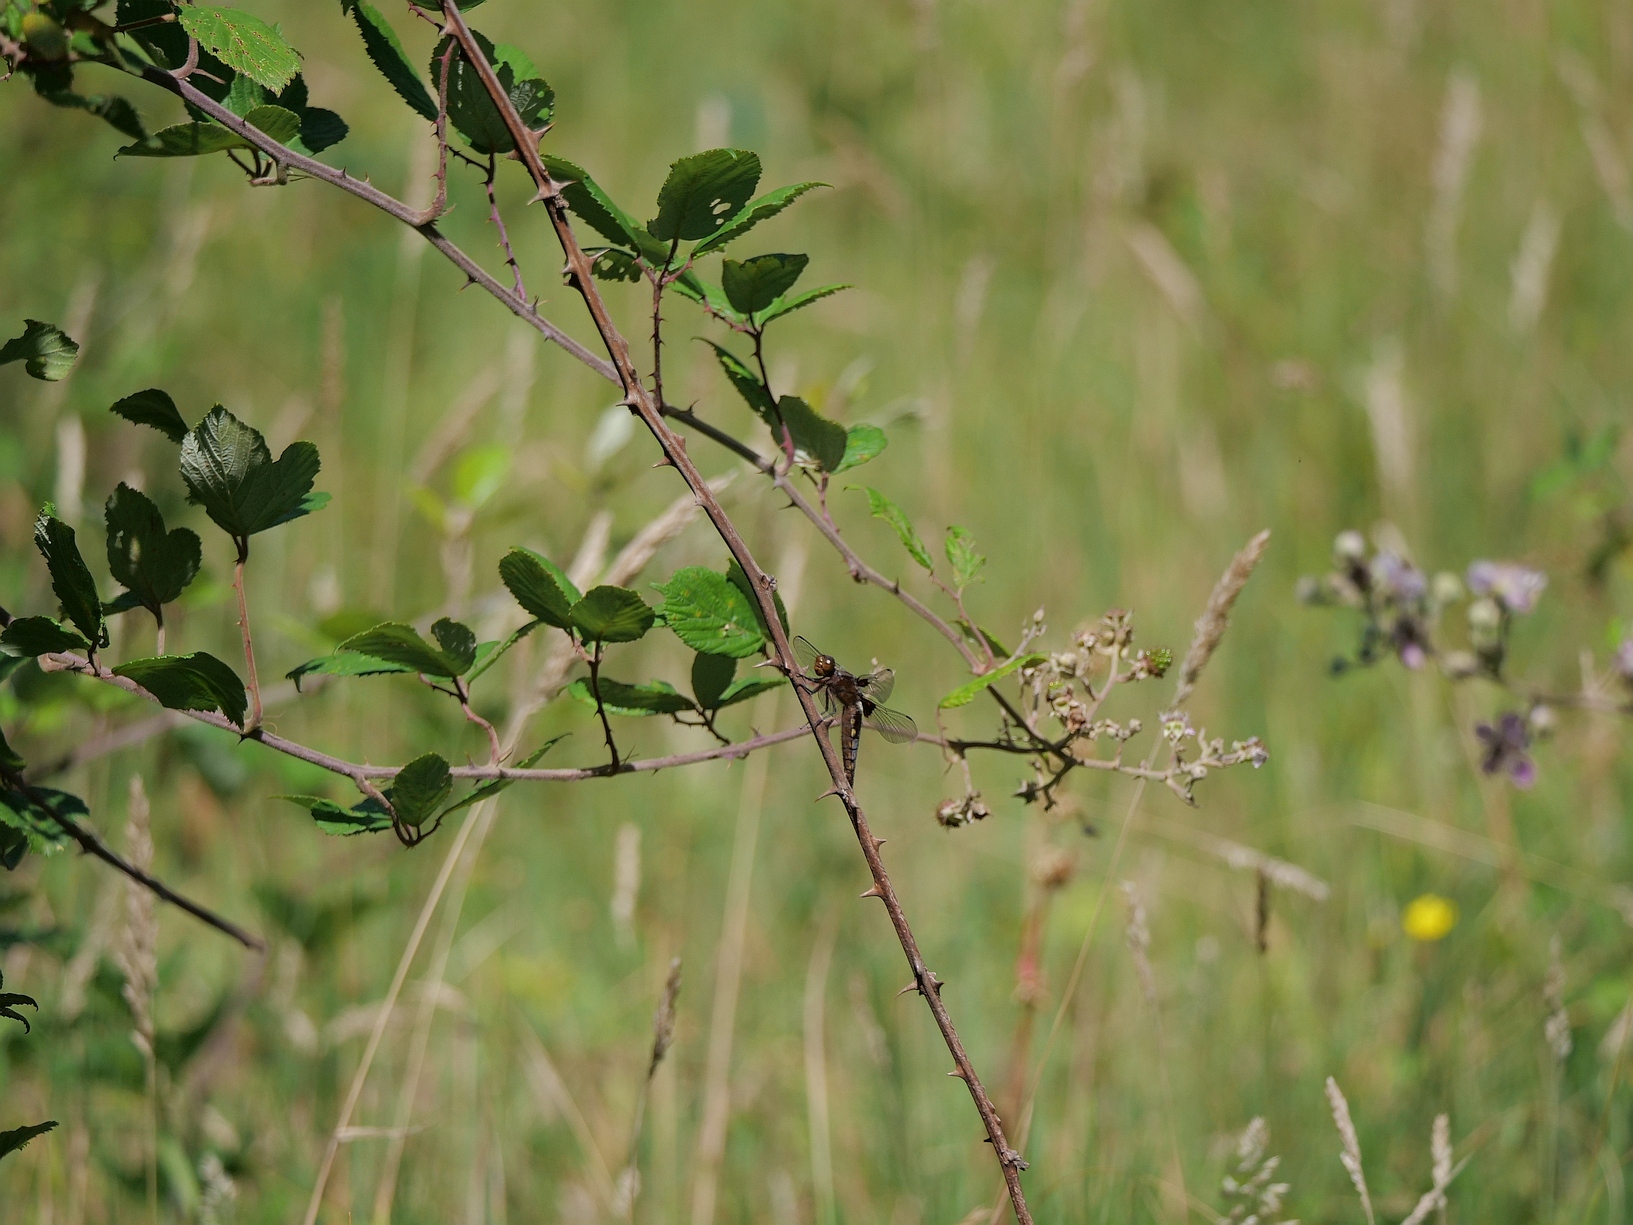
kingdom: Animalia
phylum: Arthropoda
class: Insecta
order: Odonata
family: Libellulidae
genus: Libellula
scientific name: Libellula depressa
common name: Broad-bodied chaser
